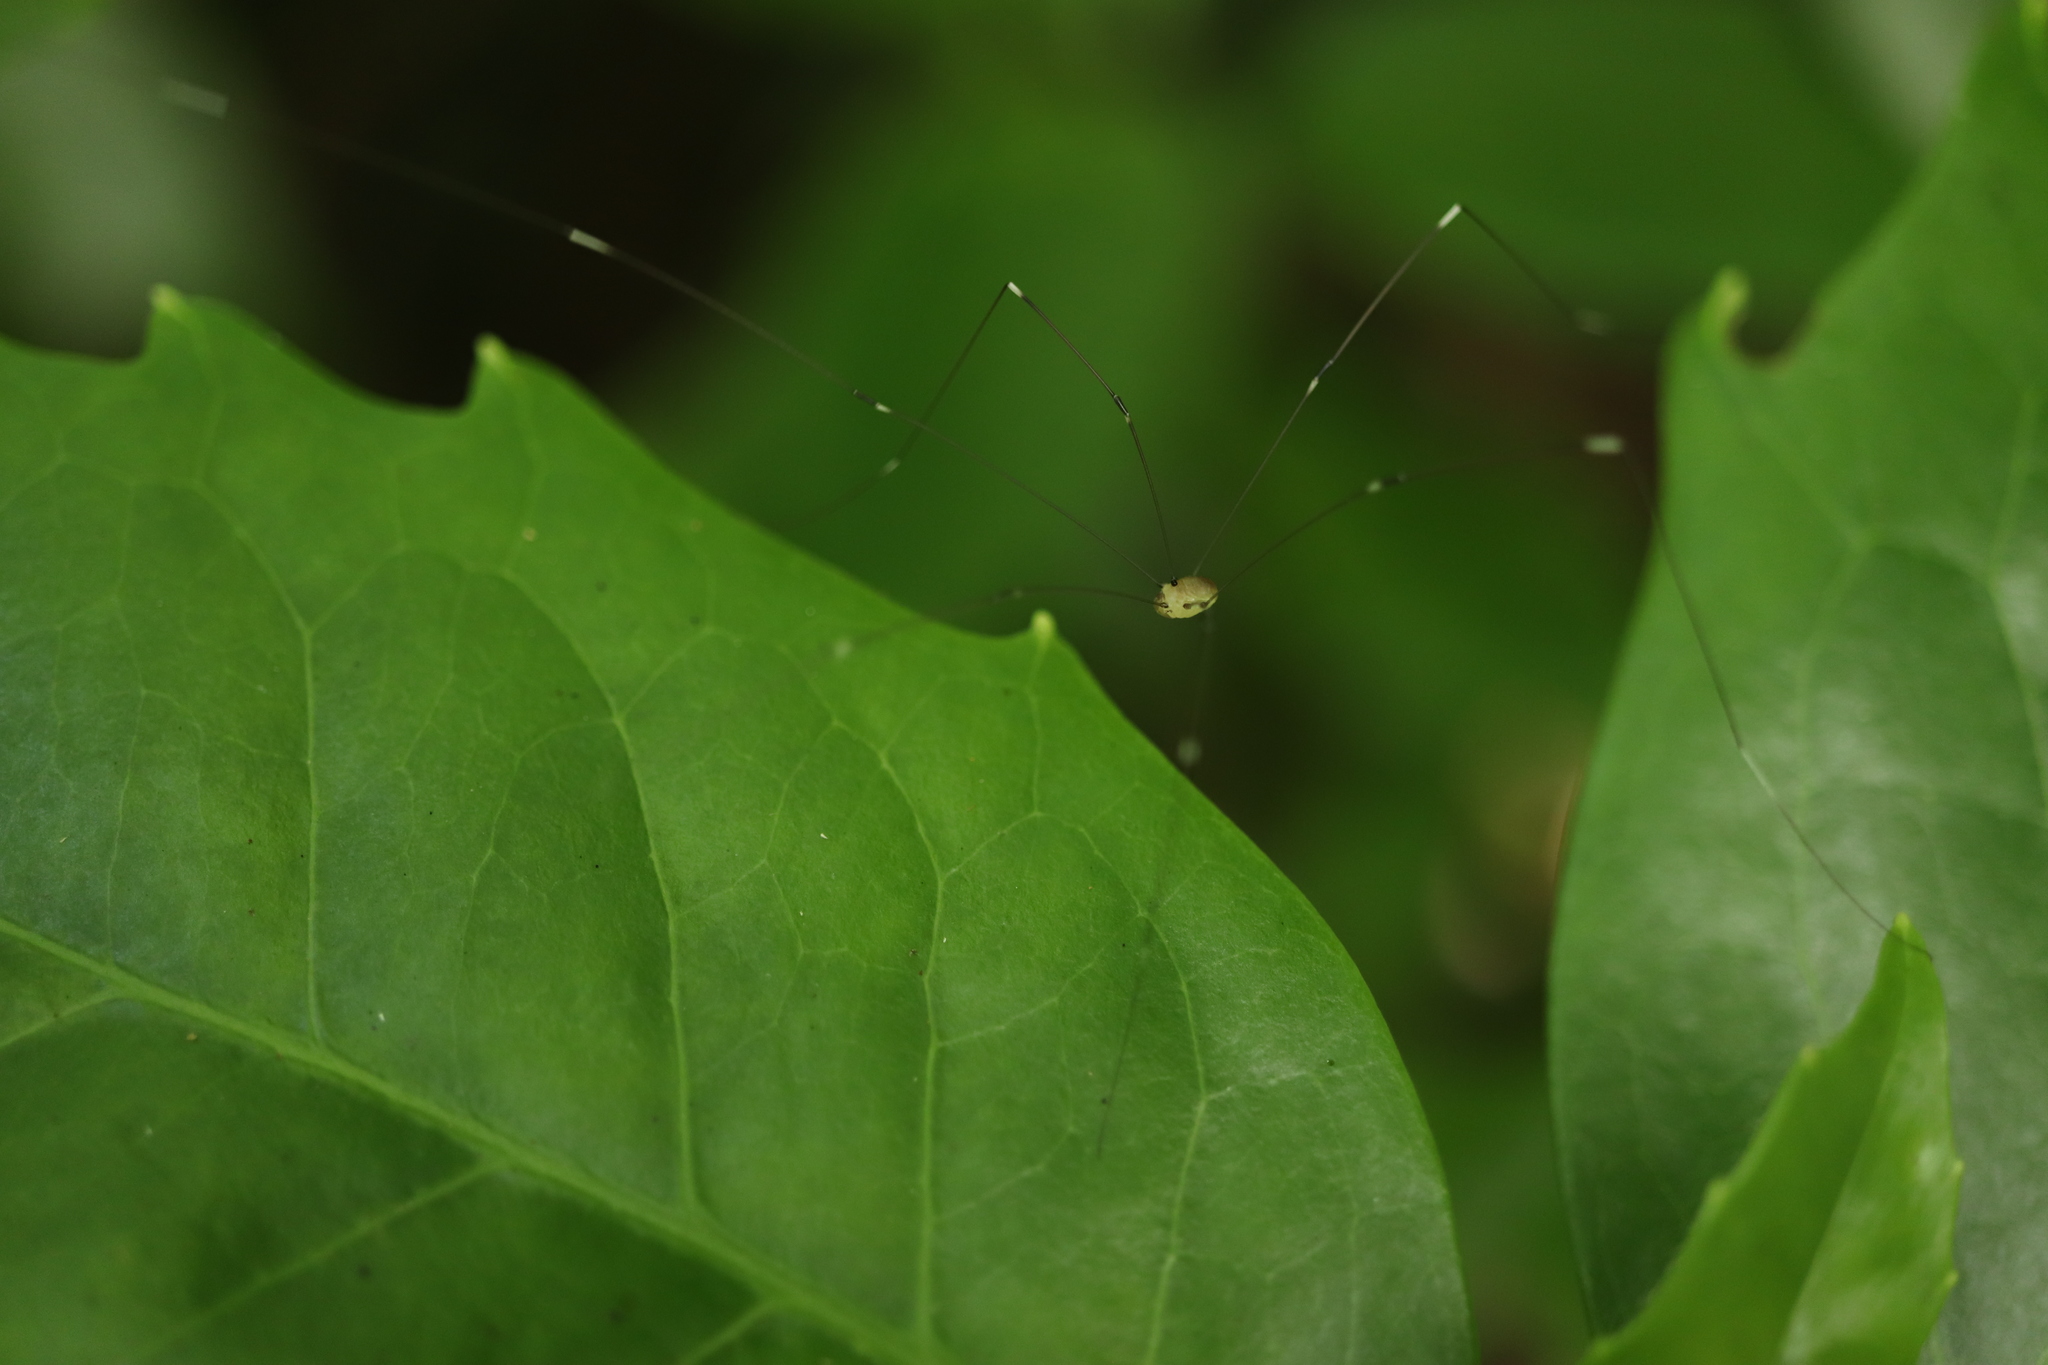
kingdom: Animalia
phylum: Arthropoda
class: Arachnida
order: Opiliones
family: Sclerosomatidae
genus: Leiobunum
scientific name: Leiobunum japonicum
